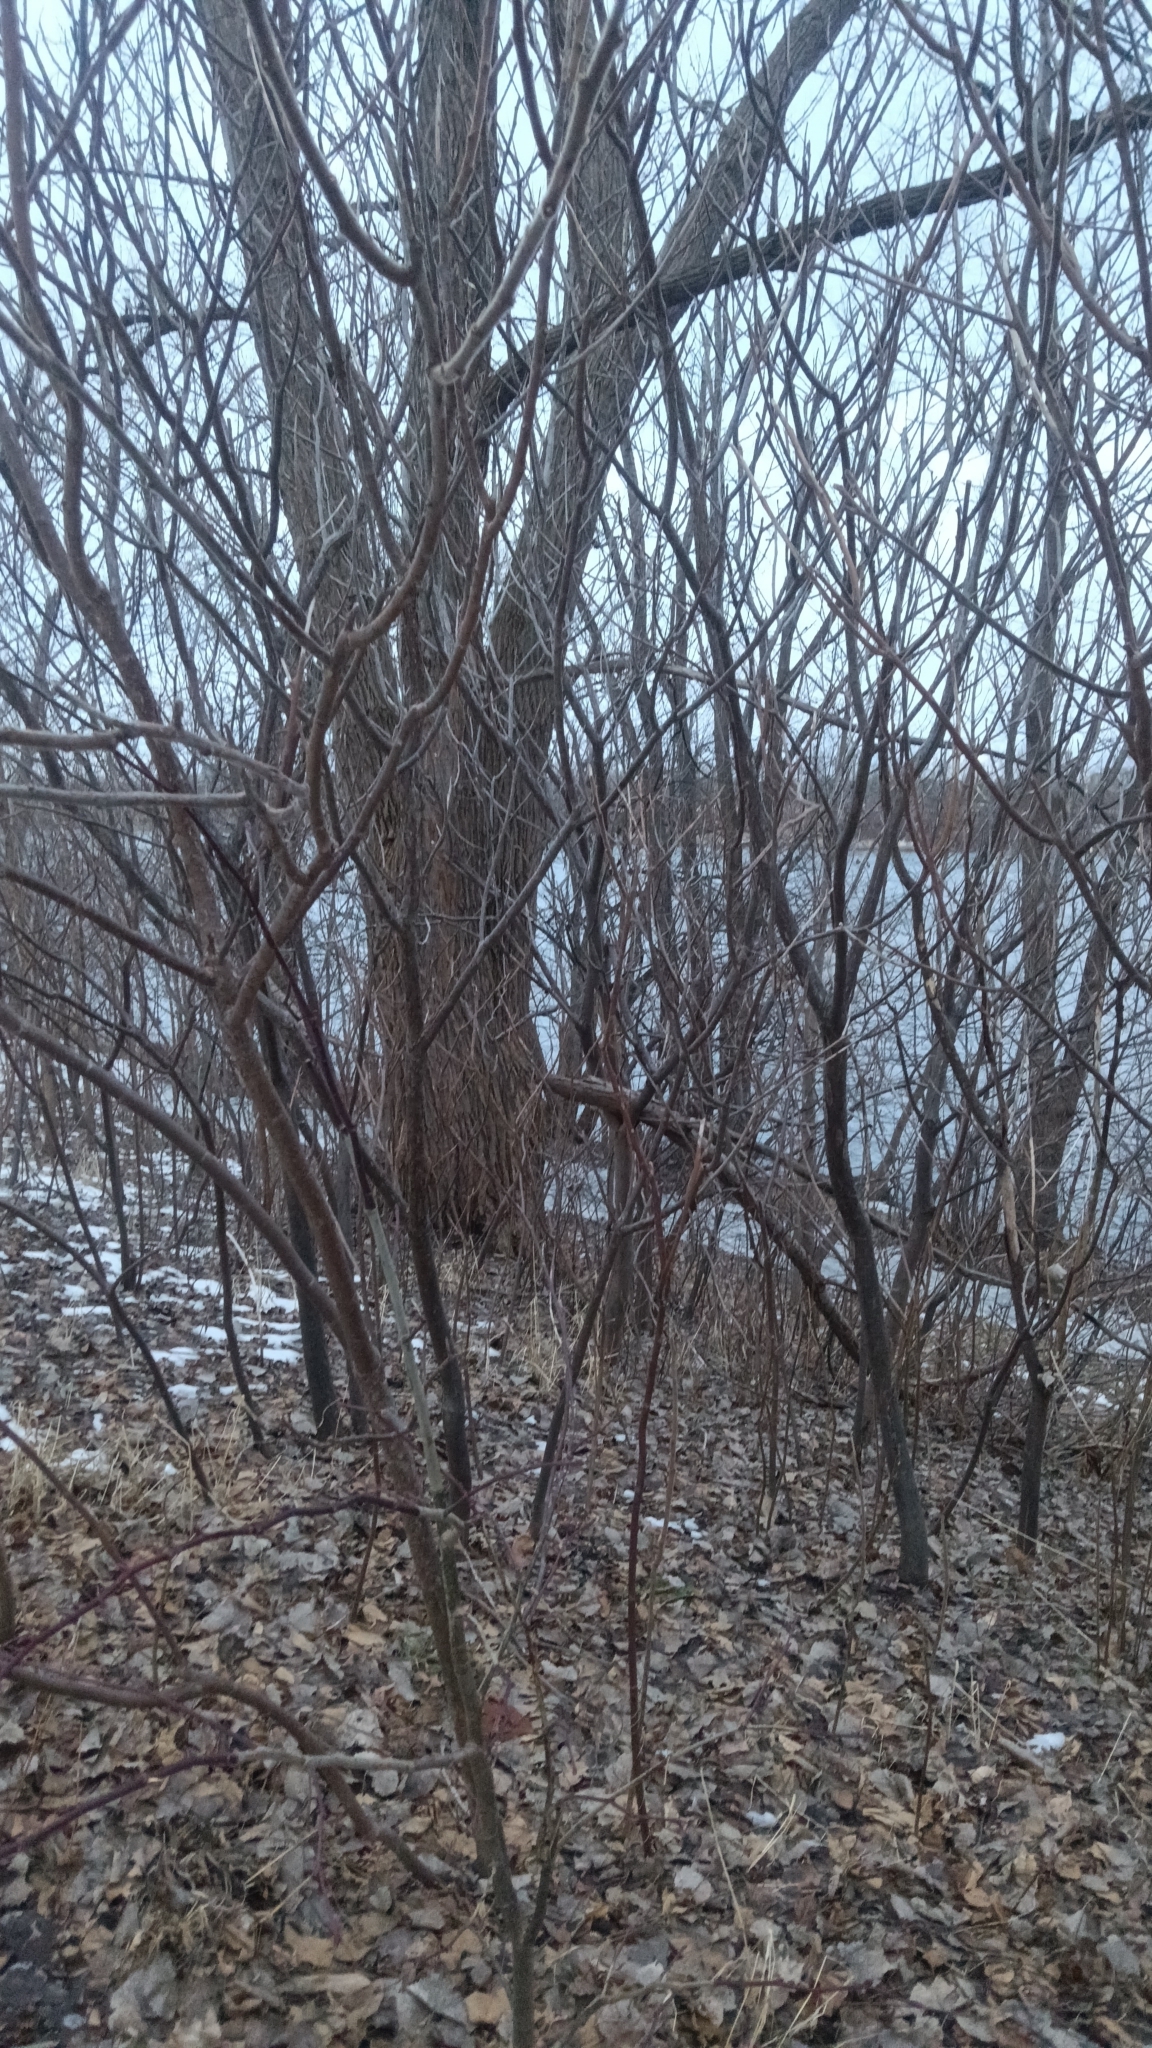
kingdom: Plantae
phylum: Tracheophyta
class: Magnoliopsida
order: Sapindales
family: Anacardiaceae
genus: Rhus
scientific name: Rhus typhina
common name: Staghorn sumac
